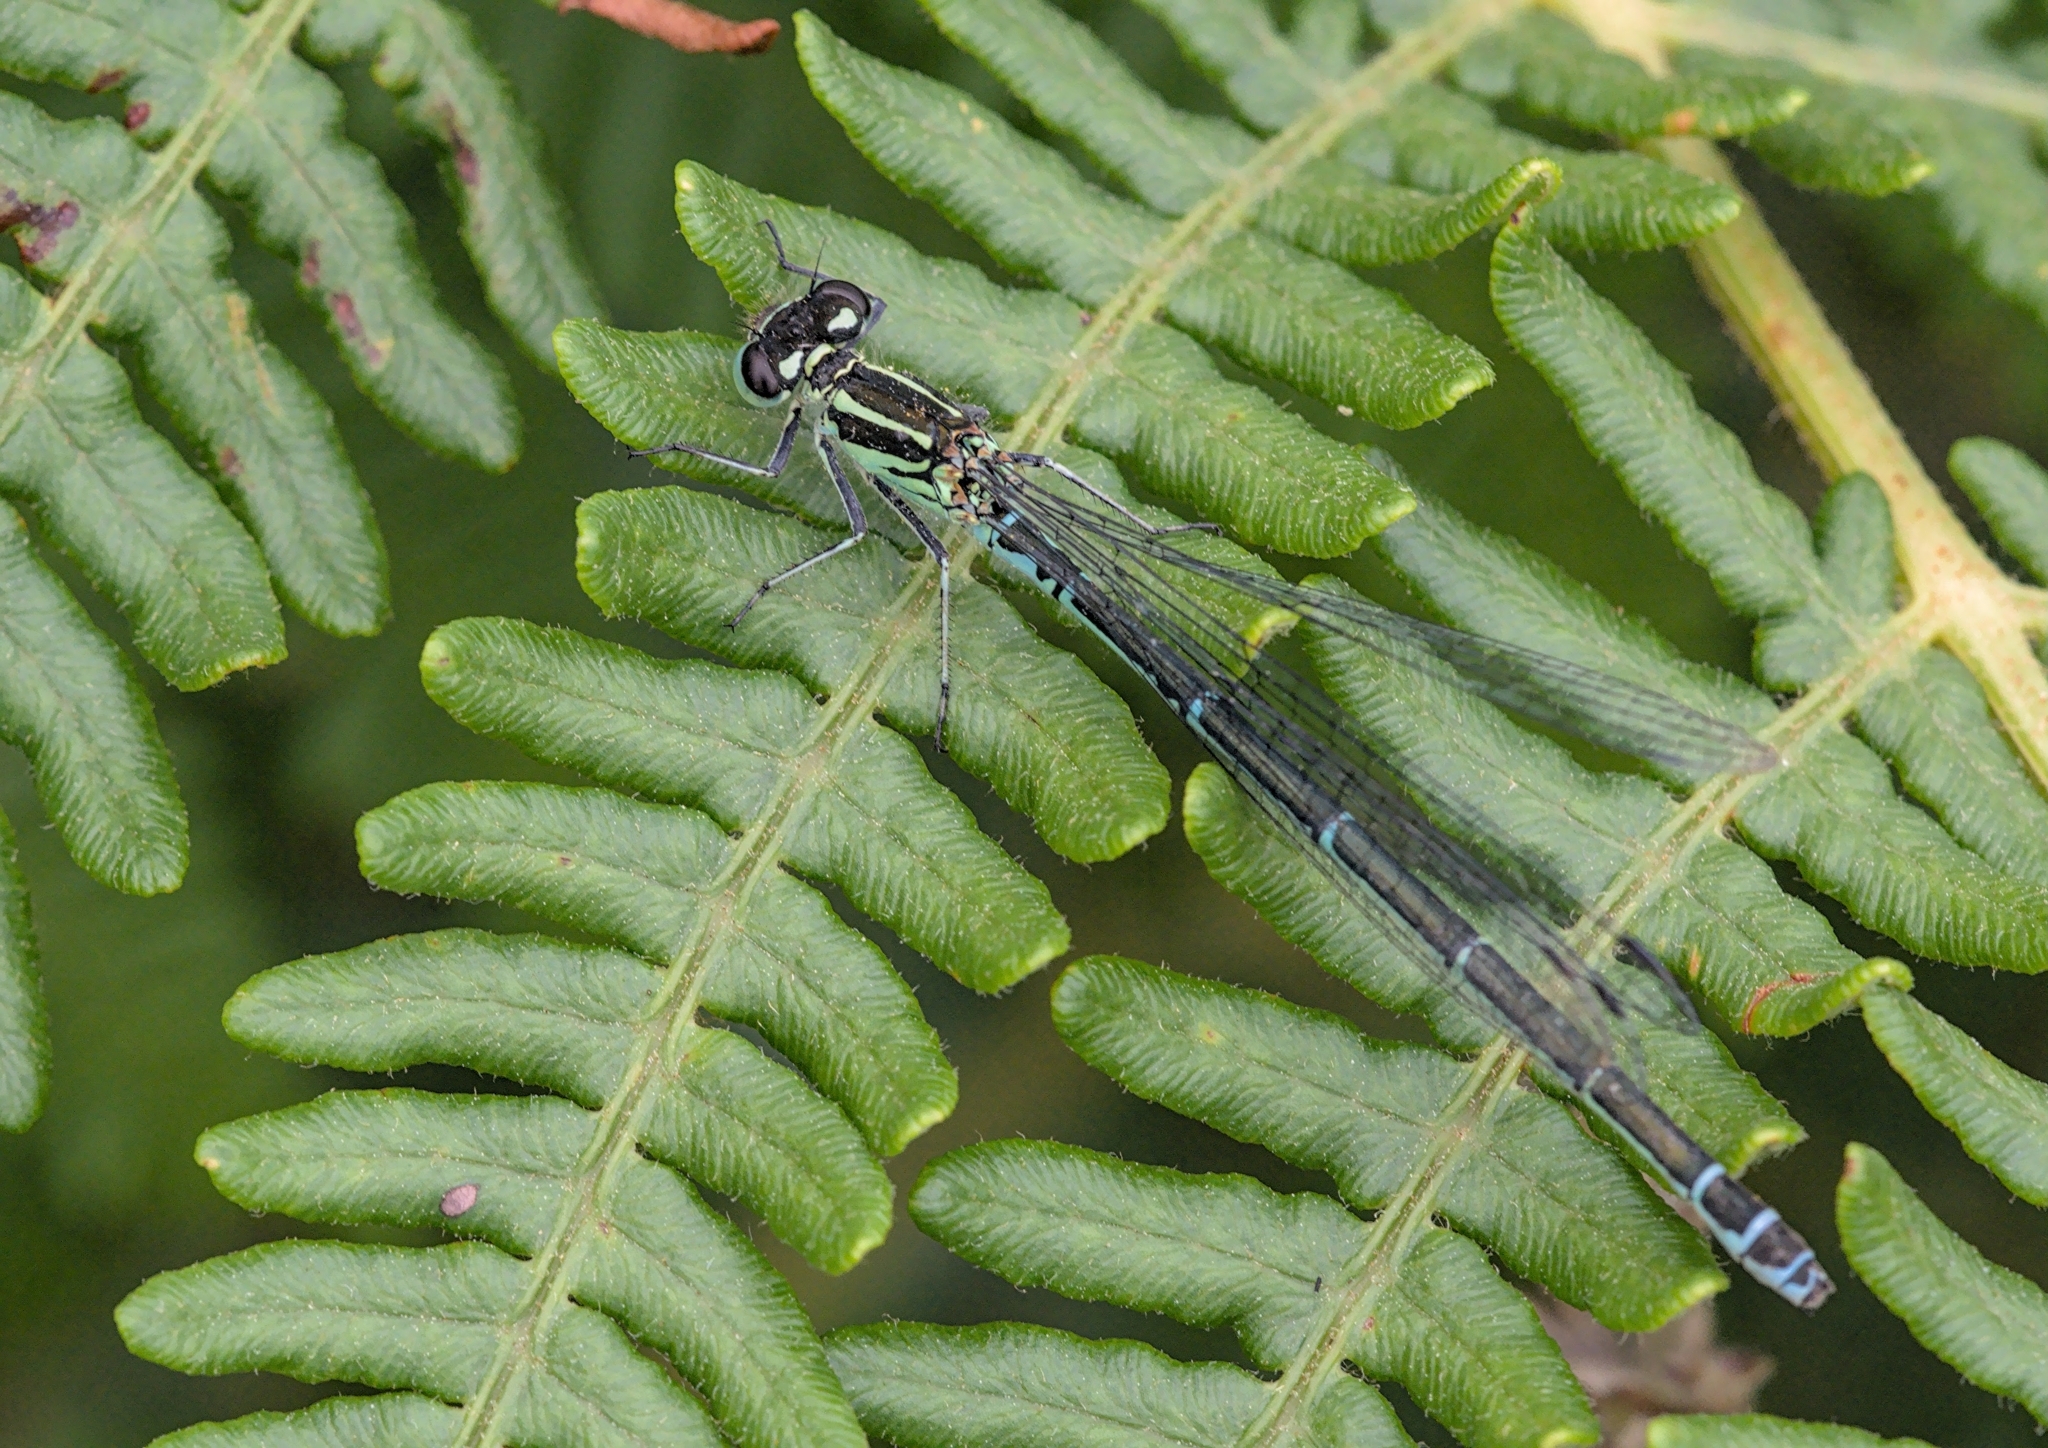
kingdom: Animalia
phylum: Arthropoda
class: Insecta
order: Odonata
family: Coenagrionidae
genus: Coenagrion
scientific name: Coenagrion puella
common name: Azure damselfly
